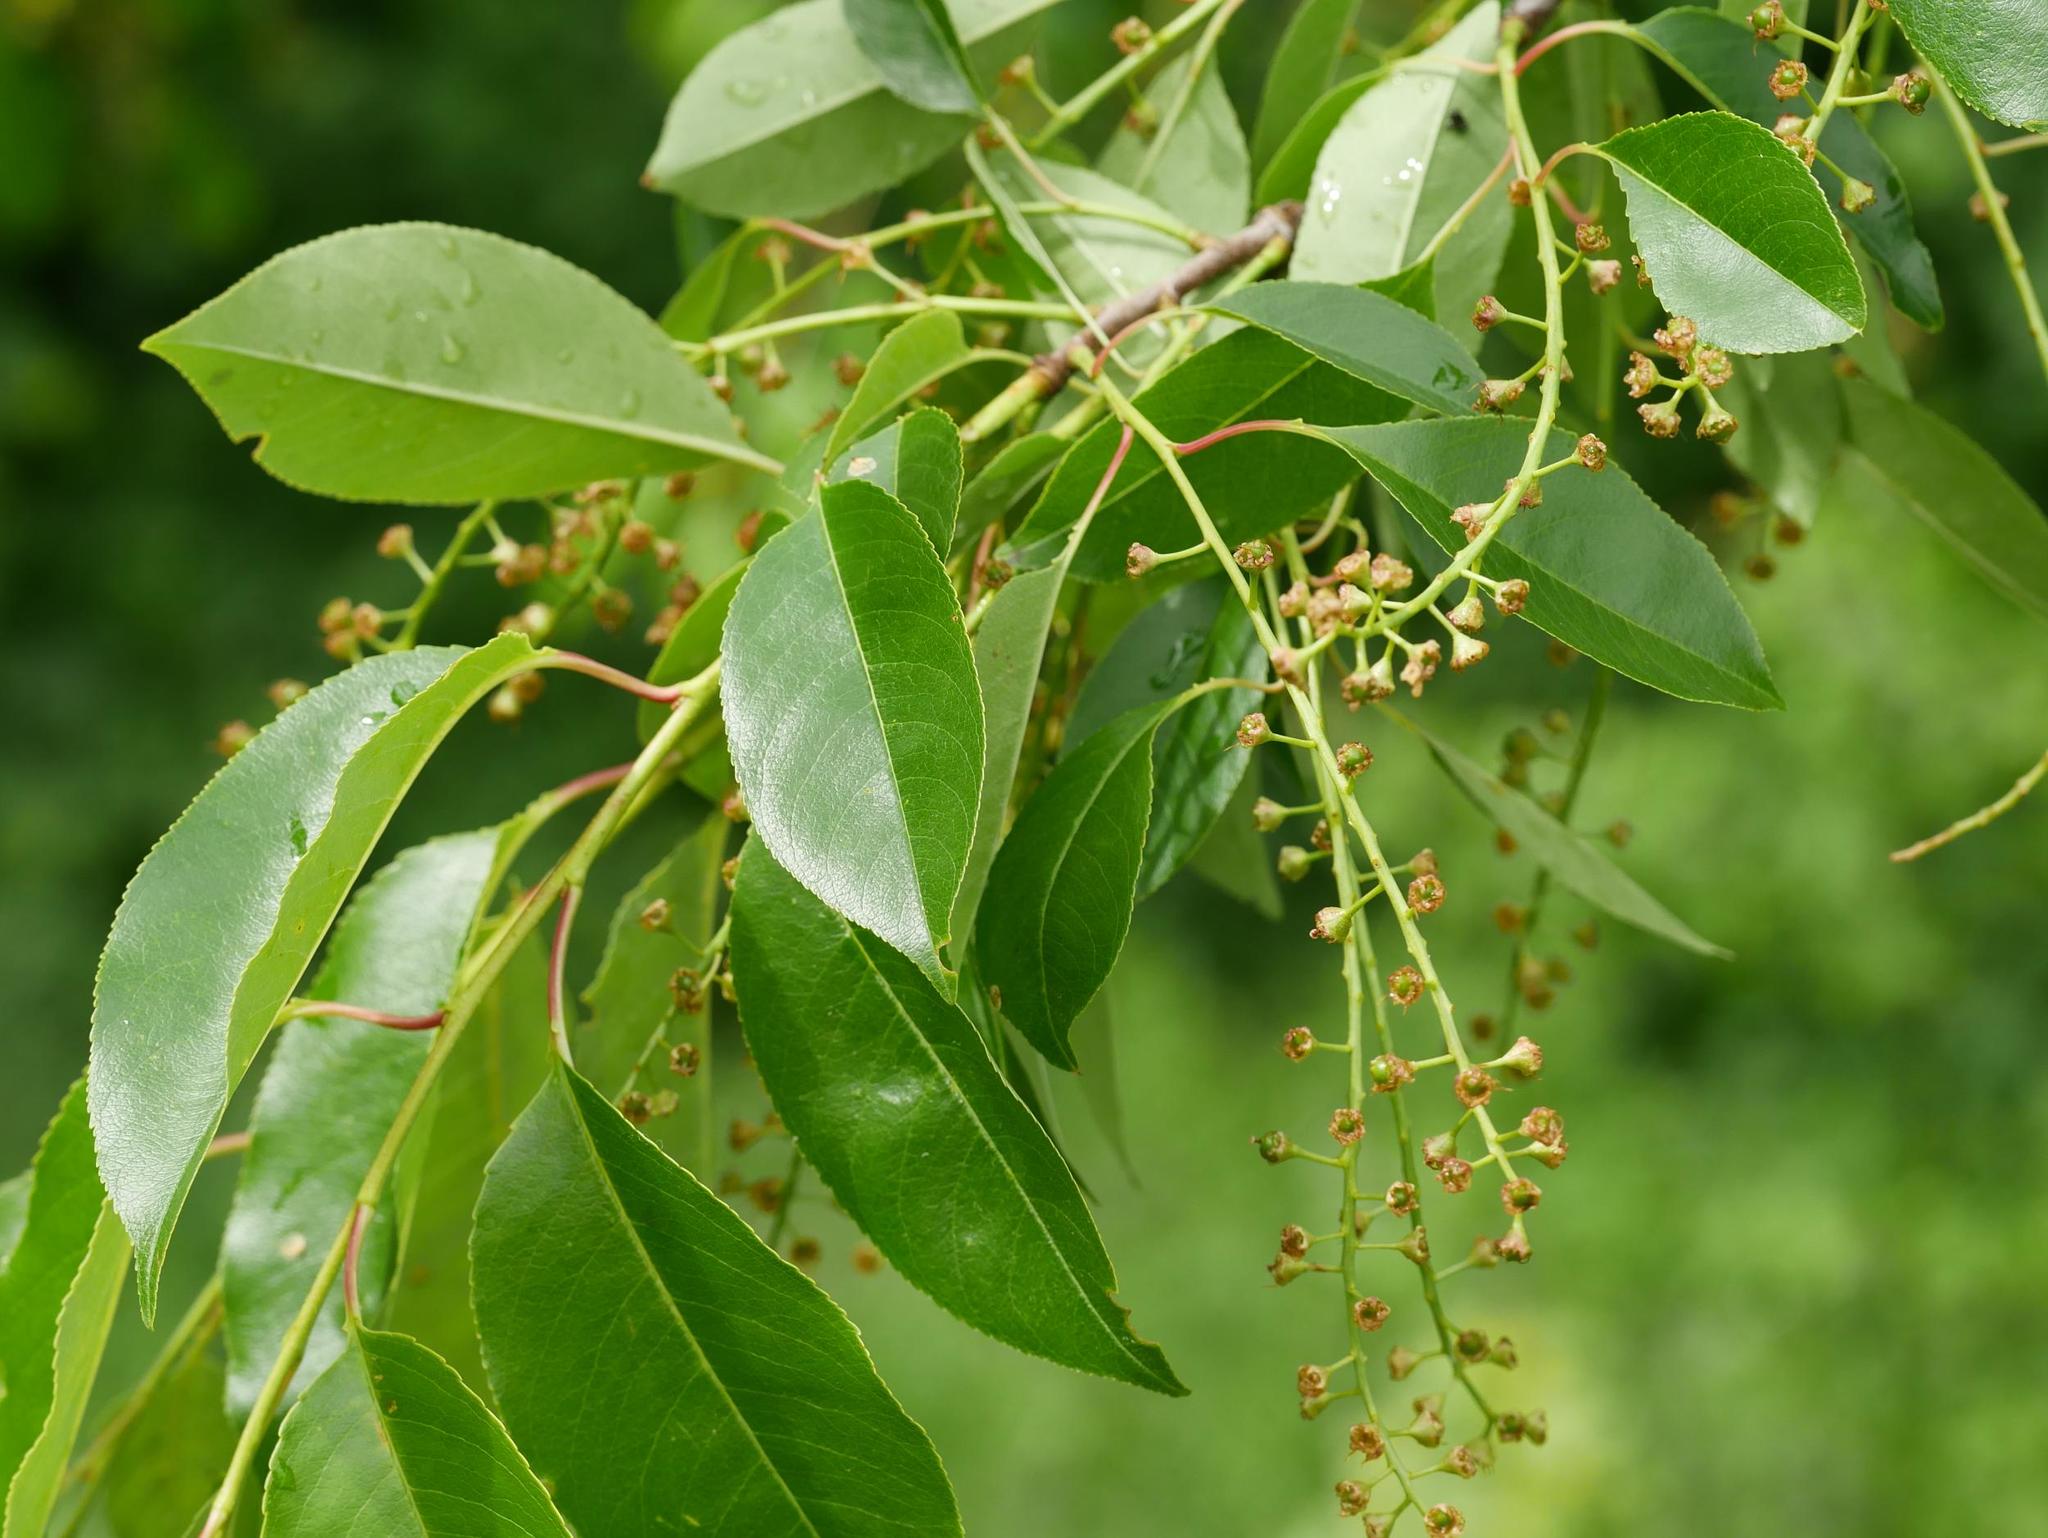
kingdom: Plantae
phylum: Tracheophyta
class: Magnoliopsida
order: Rosales
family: Rosaceae
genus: Prunus
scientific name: Prunus serotina
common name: Black cherry
